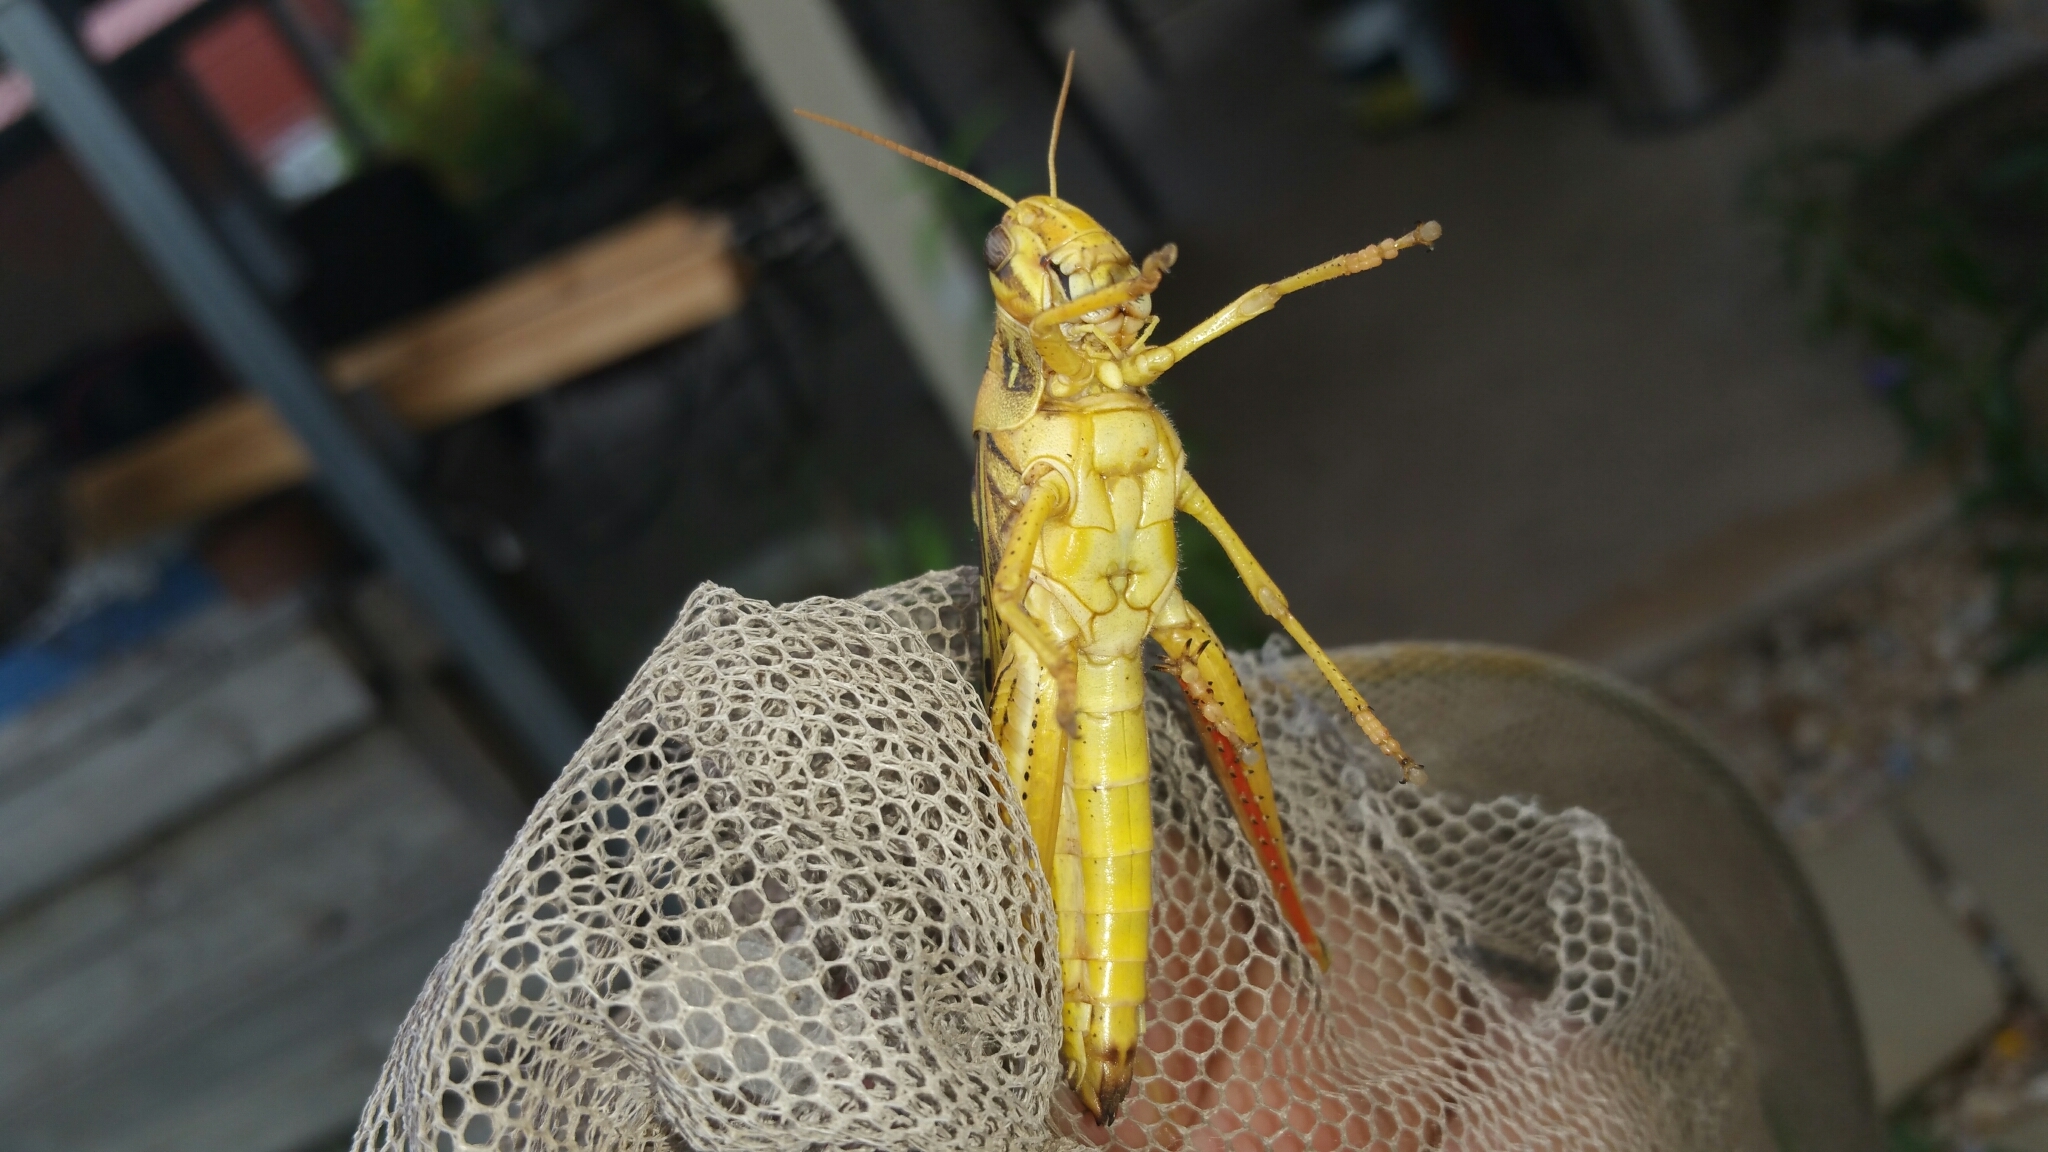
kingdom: Animalia
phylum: Arthropoda
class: Insecta
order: Orthoptera
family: Acrididae
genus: Schistocerca
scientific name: Schistocerca americana
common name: American bird locust
